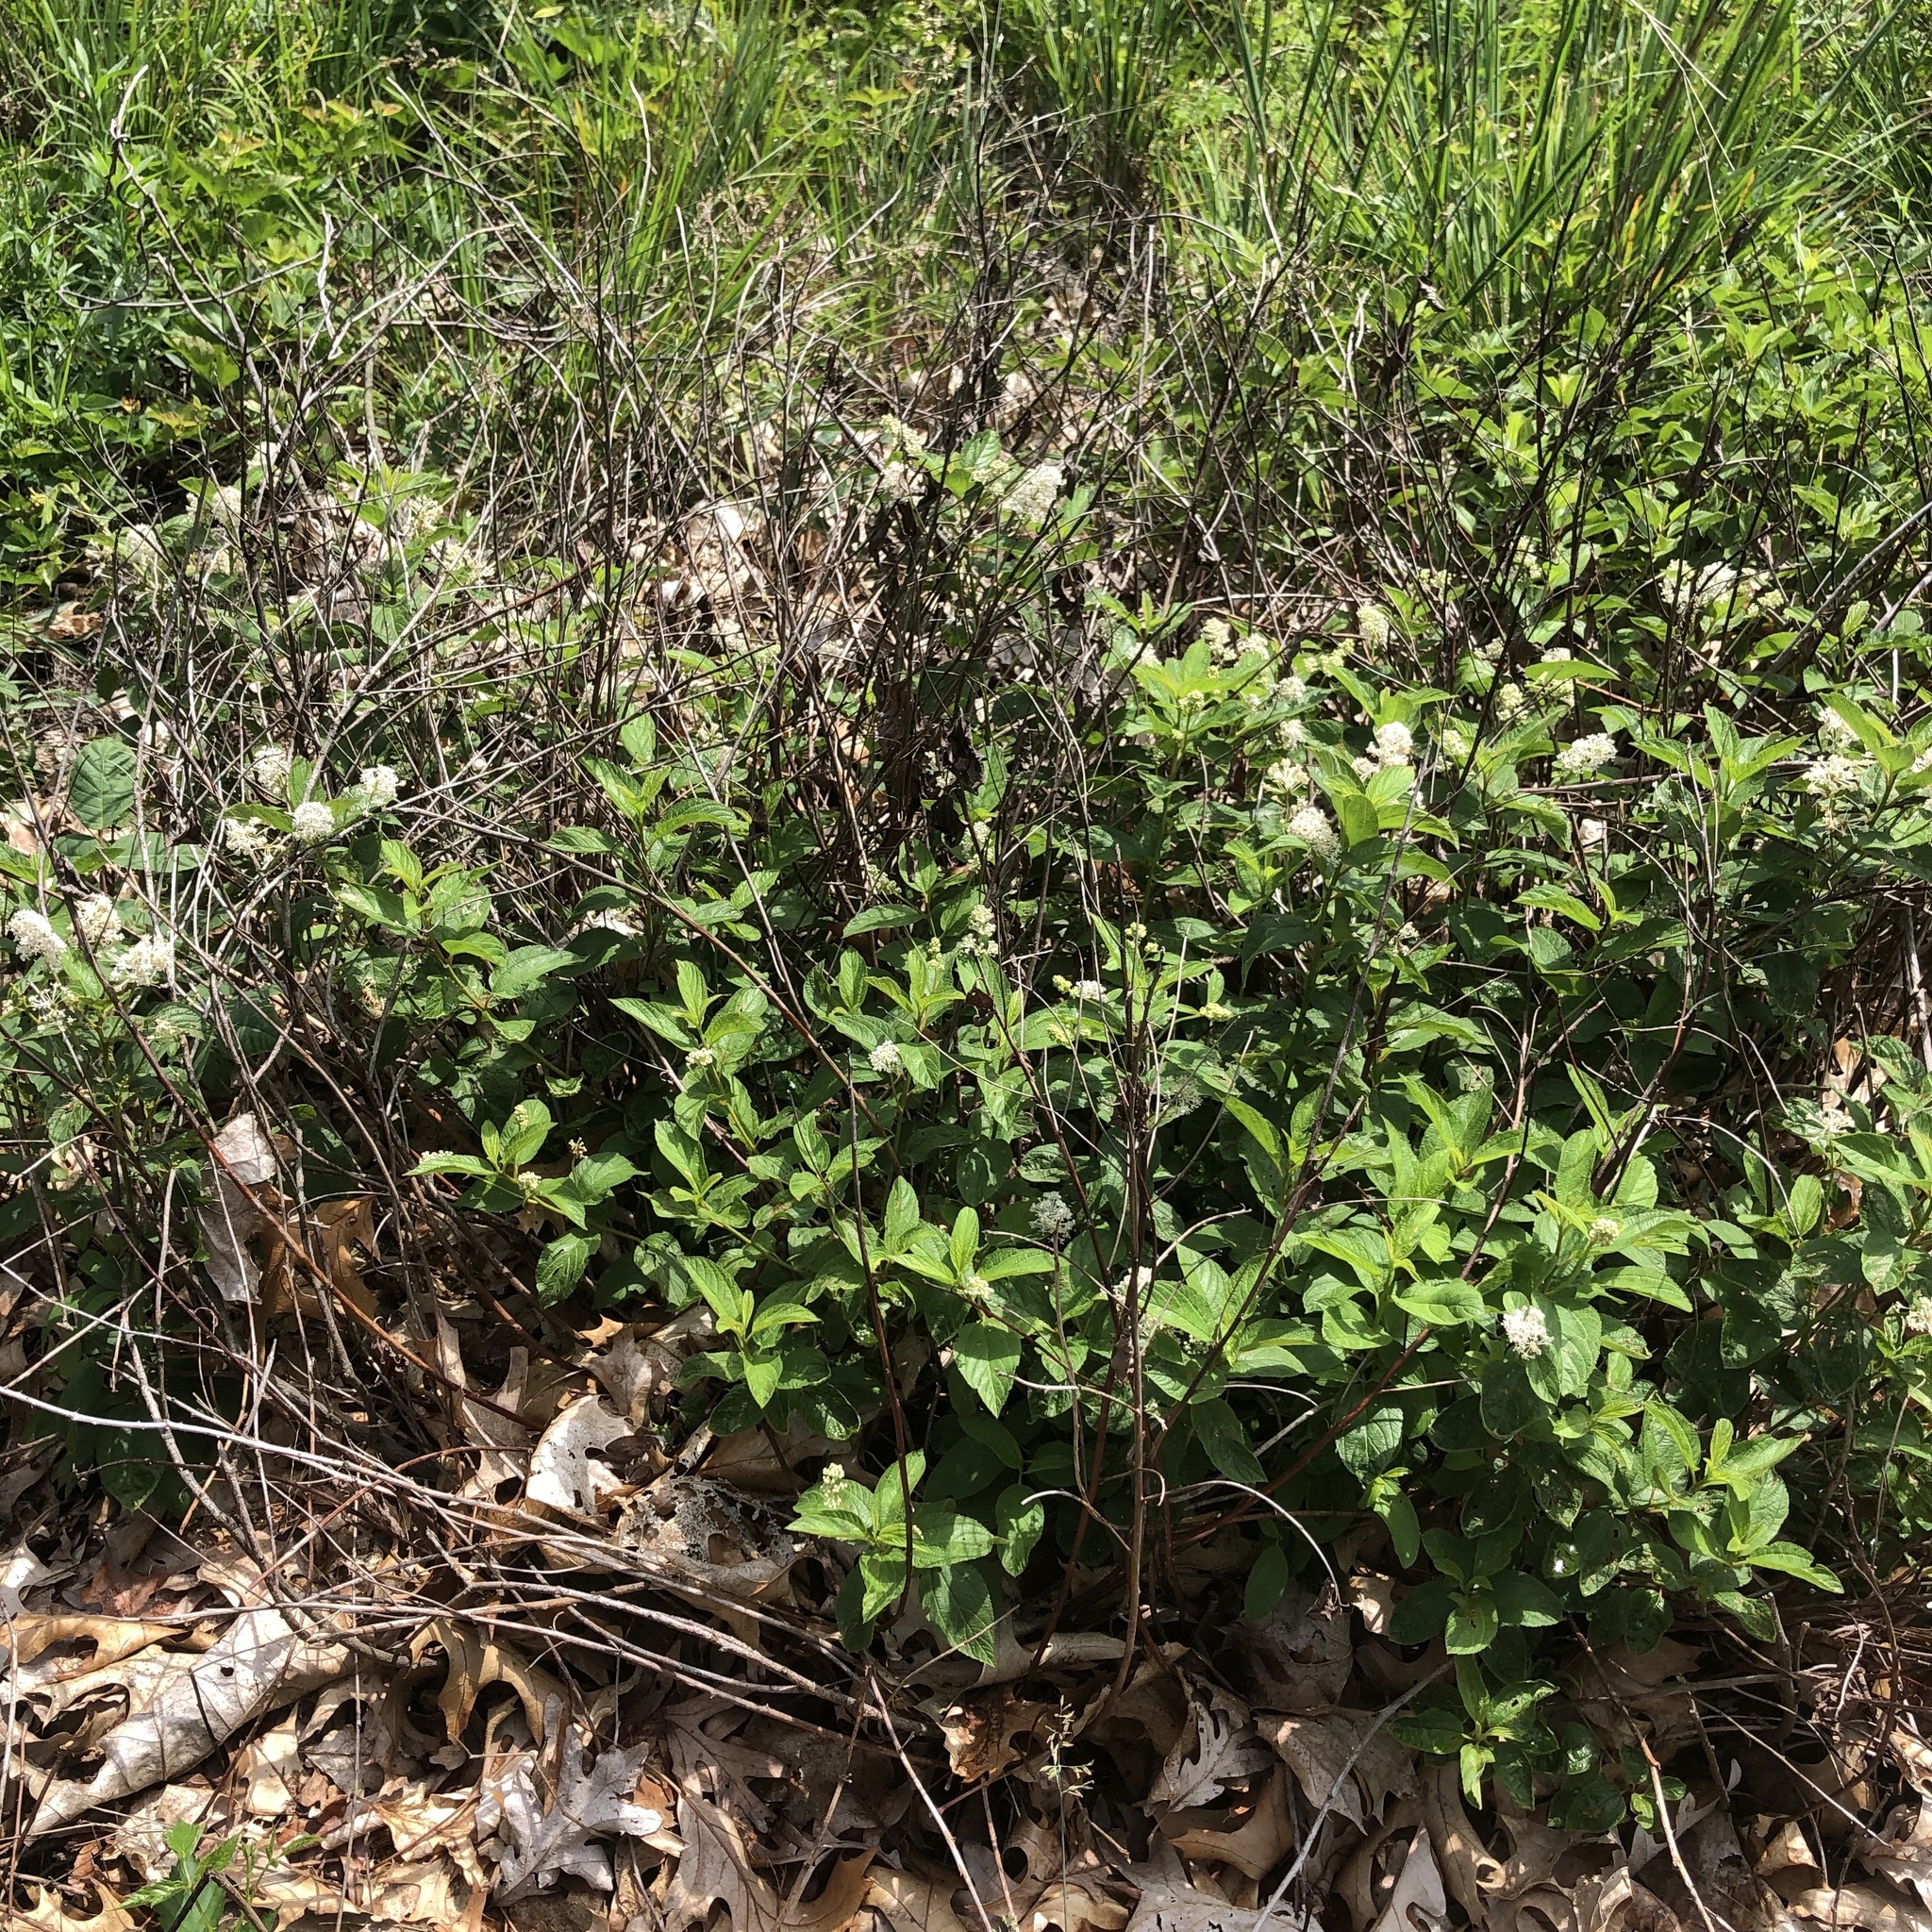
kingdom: Plantae
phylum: Tracheophyta
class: Magnoliopsida
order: Rosales
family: Rhamnaceae
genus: Ceanothus
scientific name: Ceanothus herbaceus
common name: Inland ceanothus
